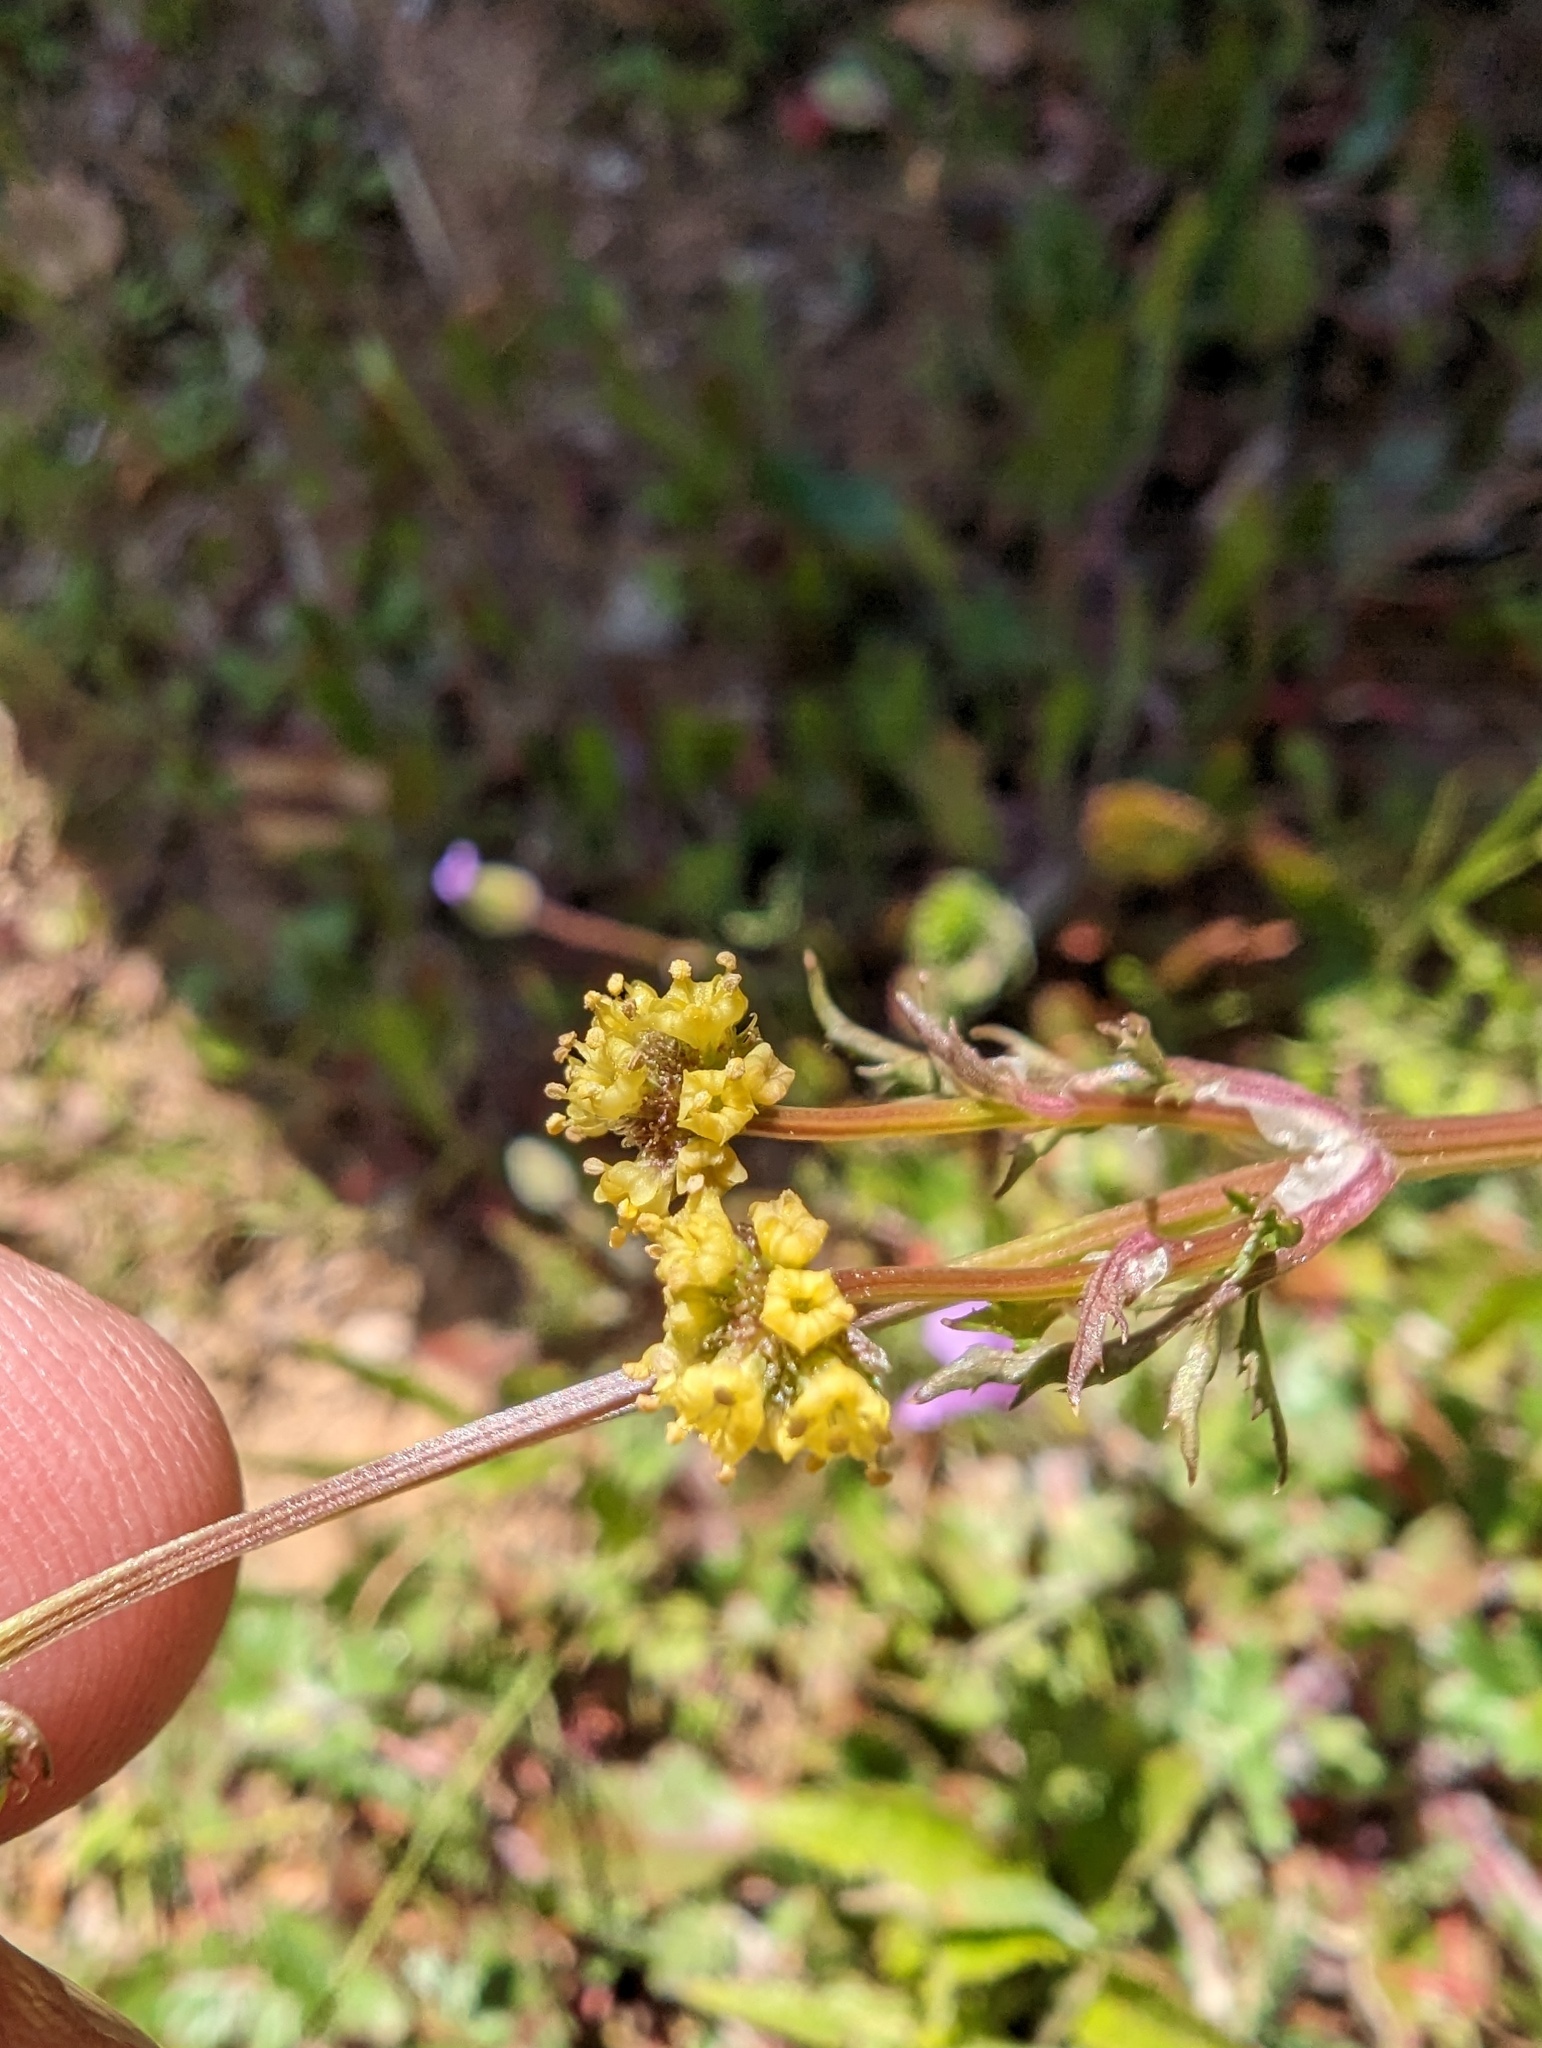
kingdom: Plantae
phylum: Tracheophyta
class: Magnoliopsida
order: Apiales
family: Apiaceae
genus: Sanicula
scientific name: Sanicula bipinnata
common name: Poison sanicle
